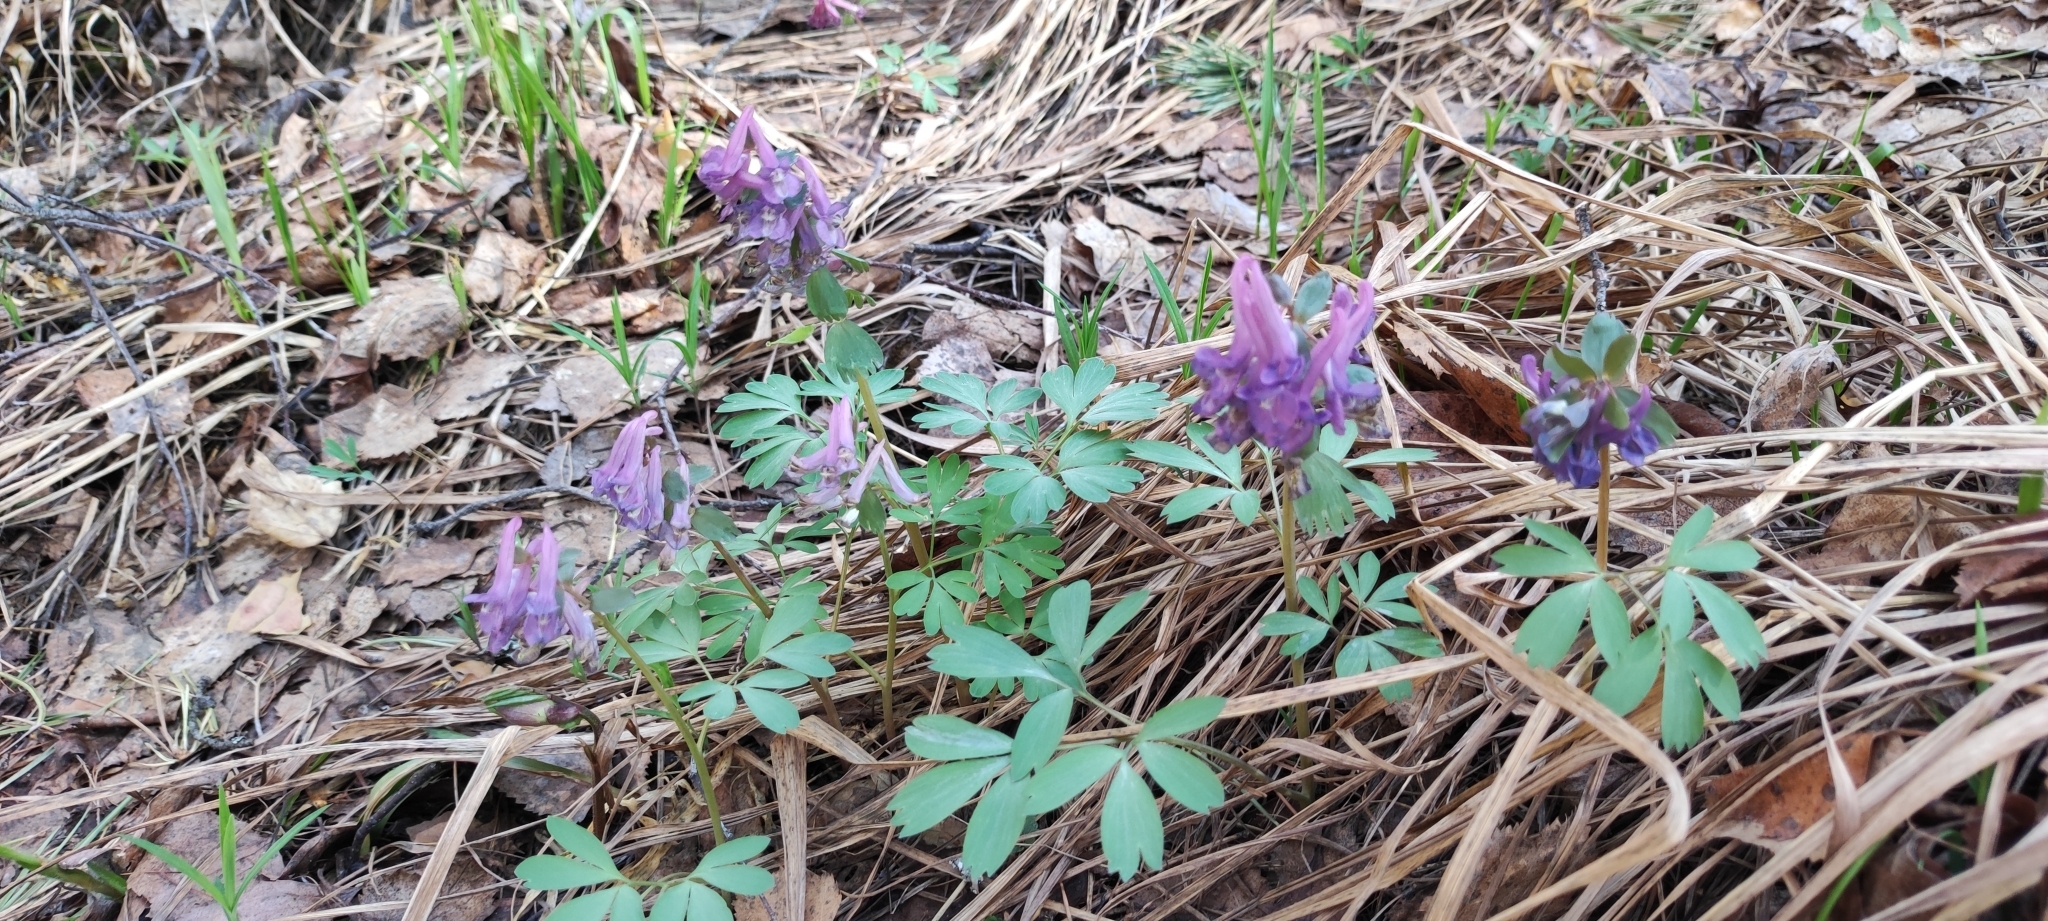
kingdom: Plantae
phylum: Tracheophyta
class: Magnoliopsida
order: Ranunculales
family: Papaveraceae
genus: Corydalis
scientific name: Corydalis solida
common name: Bird-in-a-bush
